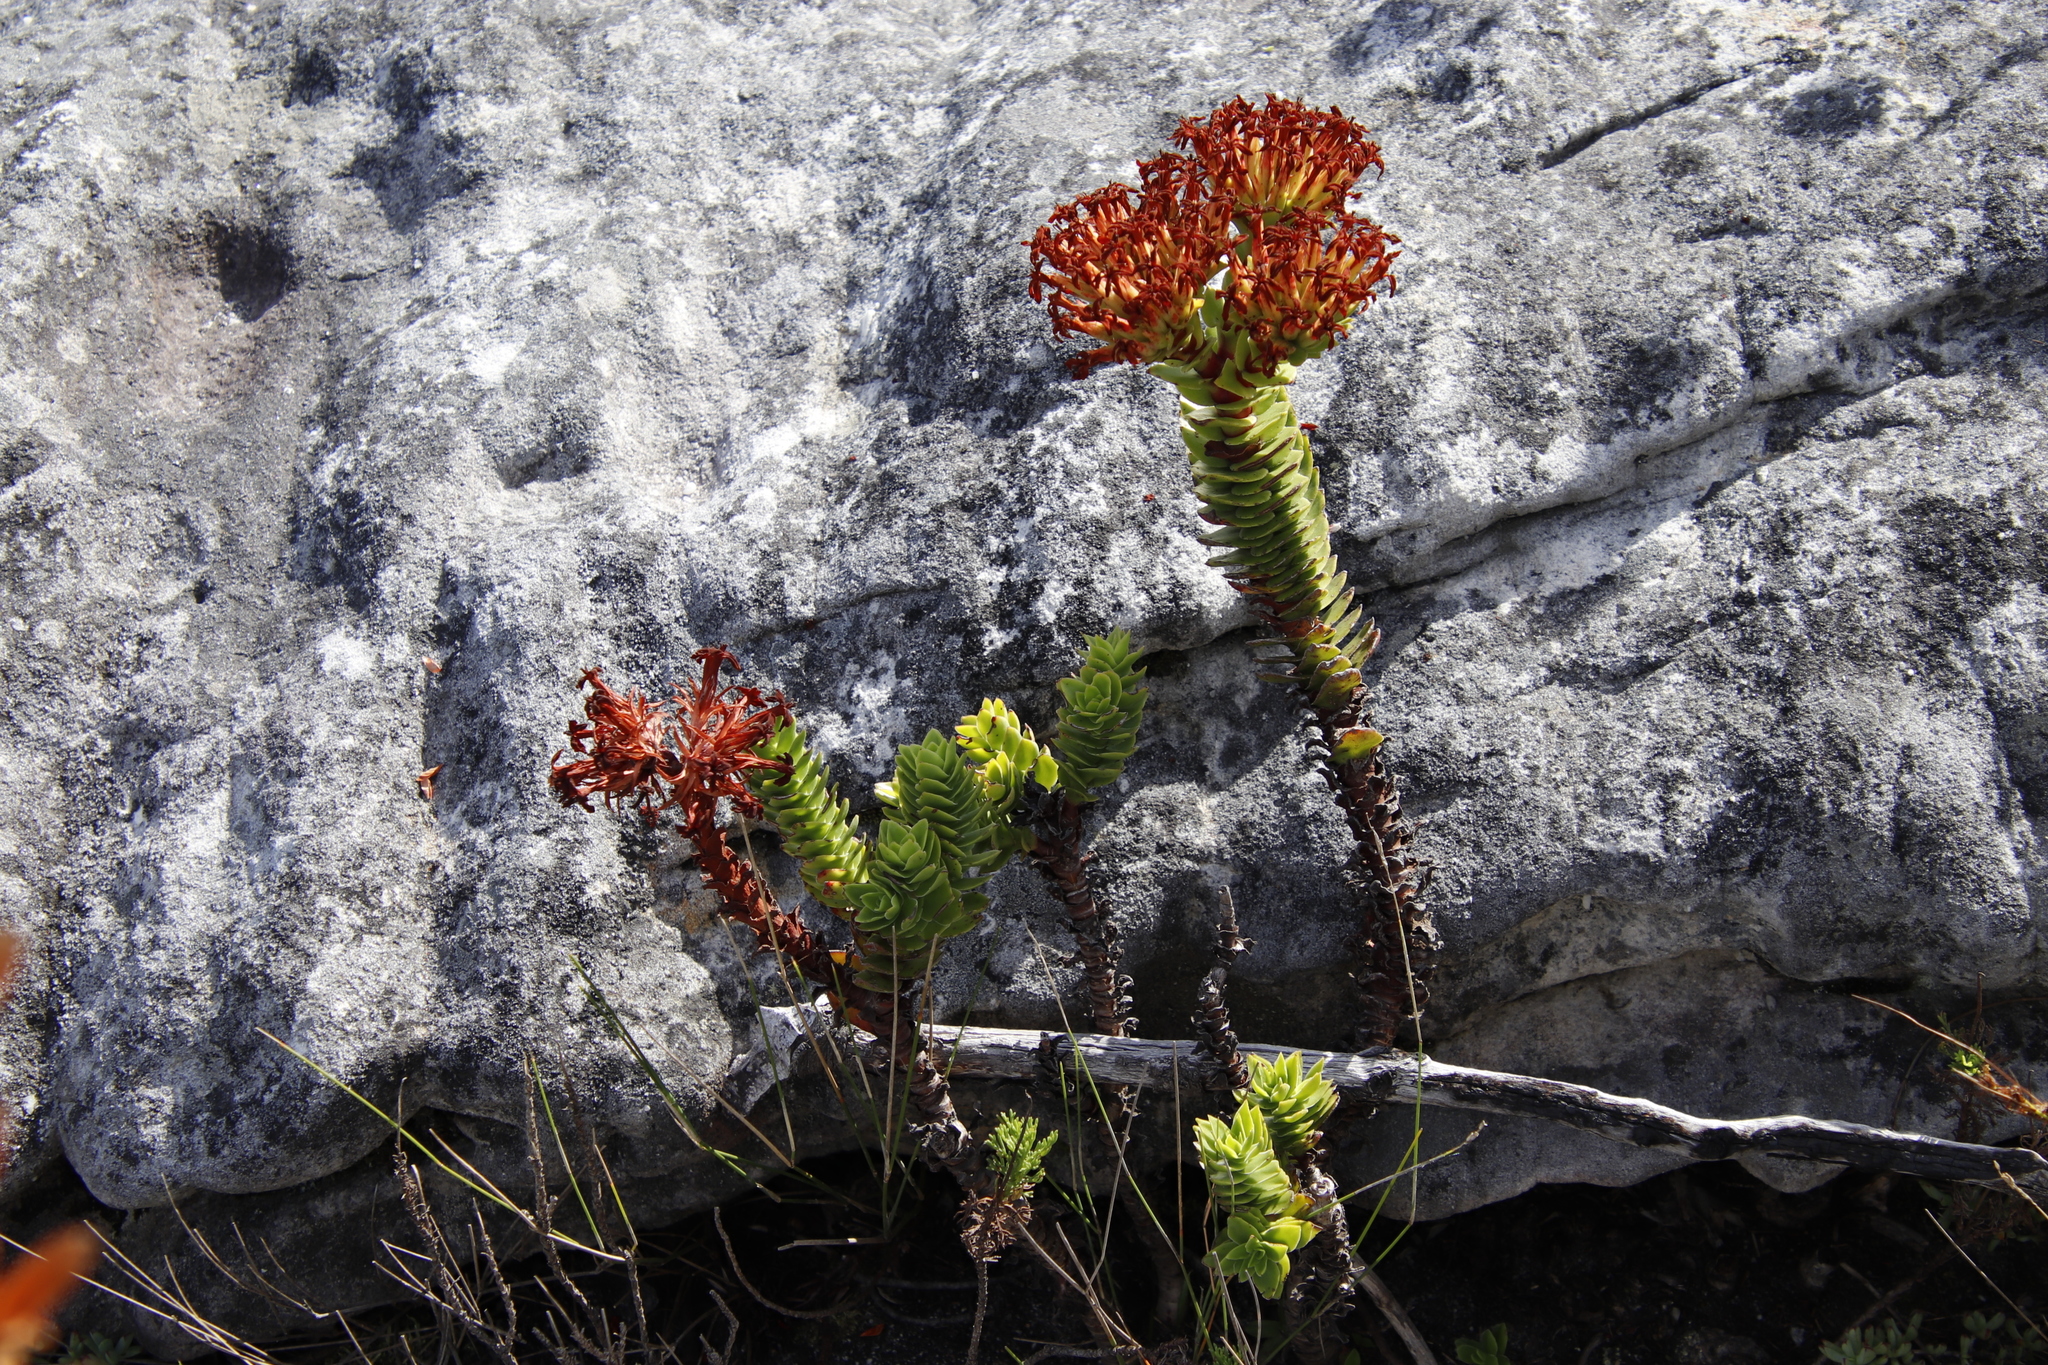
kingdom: Plantae
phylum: Tracheophyta
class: Magnoliopsida
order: Saxifragales
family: Crassulaceae
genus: Crassula
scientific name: Crassula coccinea
